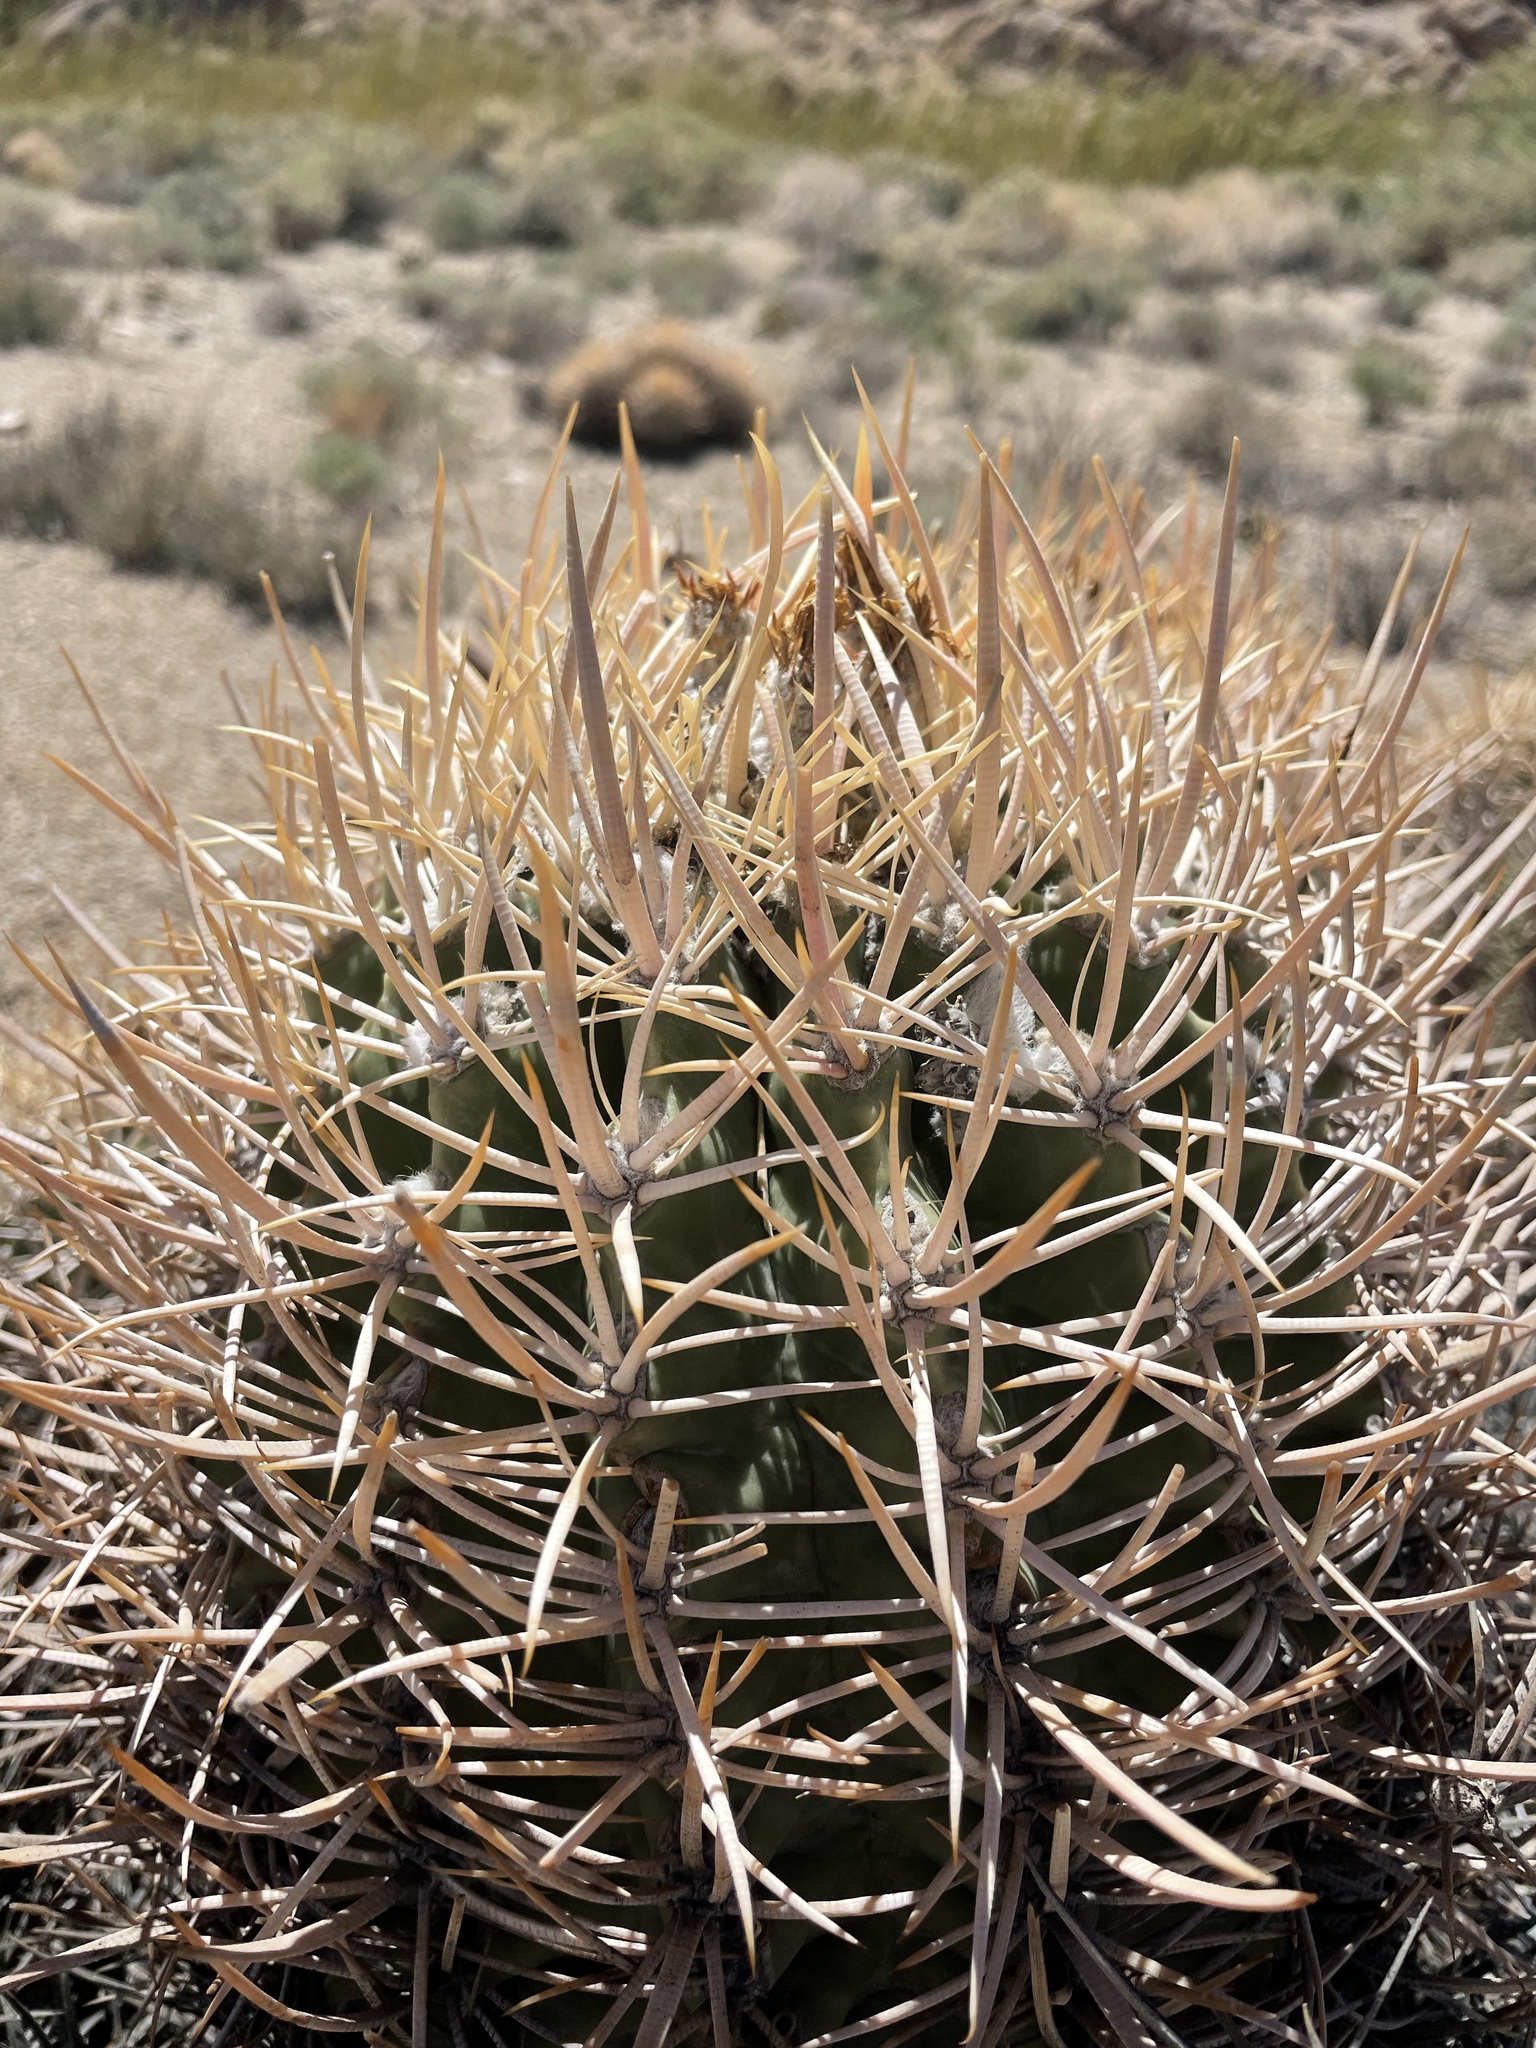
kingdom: Plantae
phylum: Tracheophyta
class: Magnoliopsida
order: Caryophyllales
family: Cactaceae
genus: Echinocactus
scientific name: Echinocactus polycephalus
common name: Cottontop cactus
